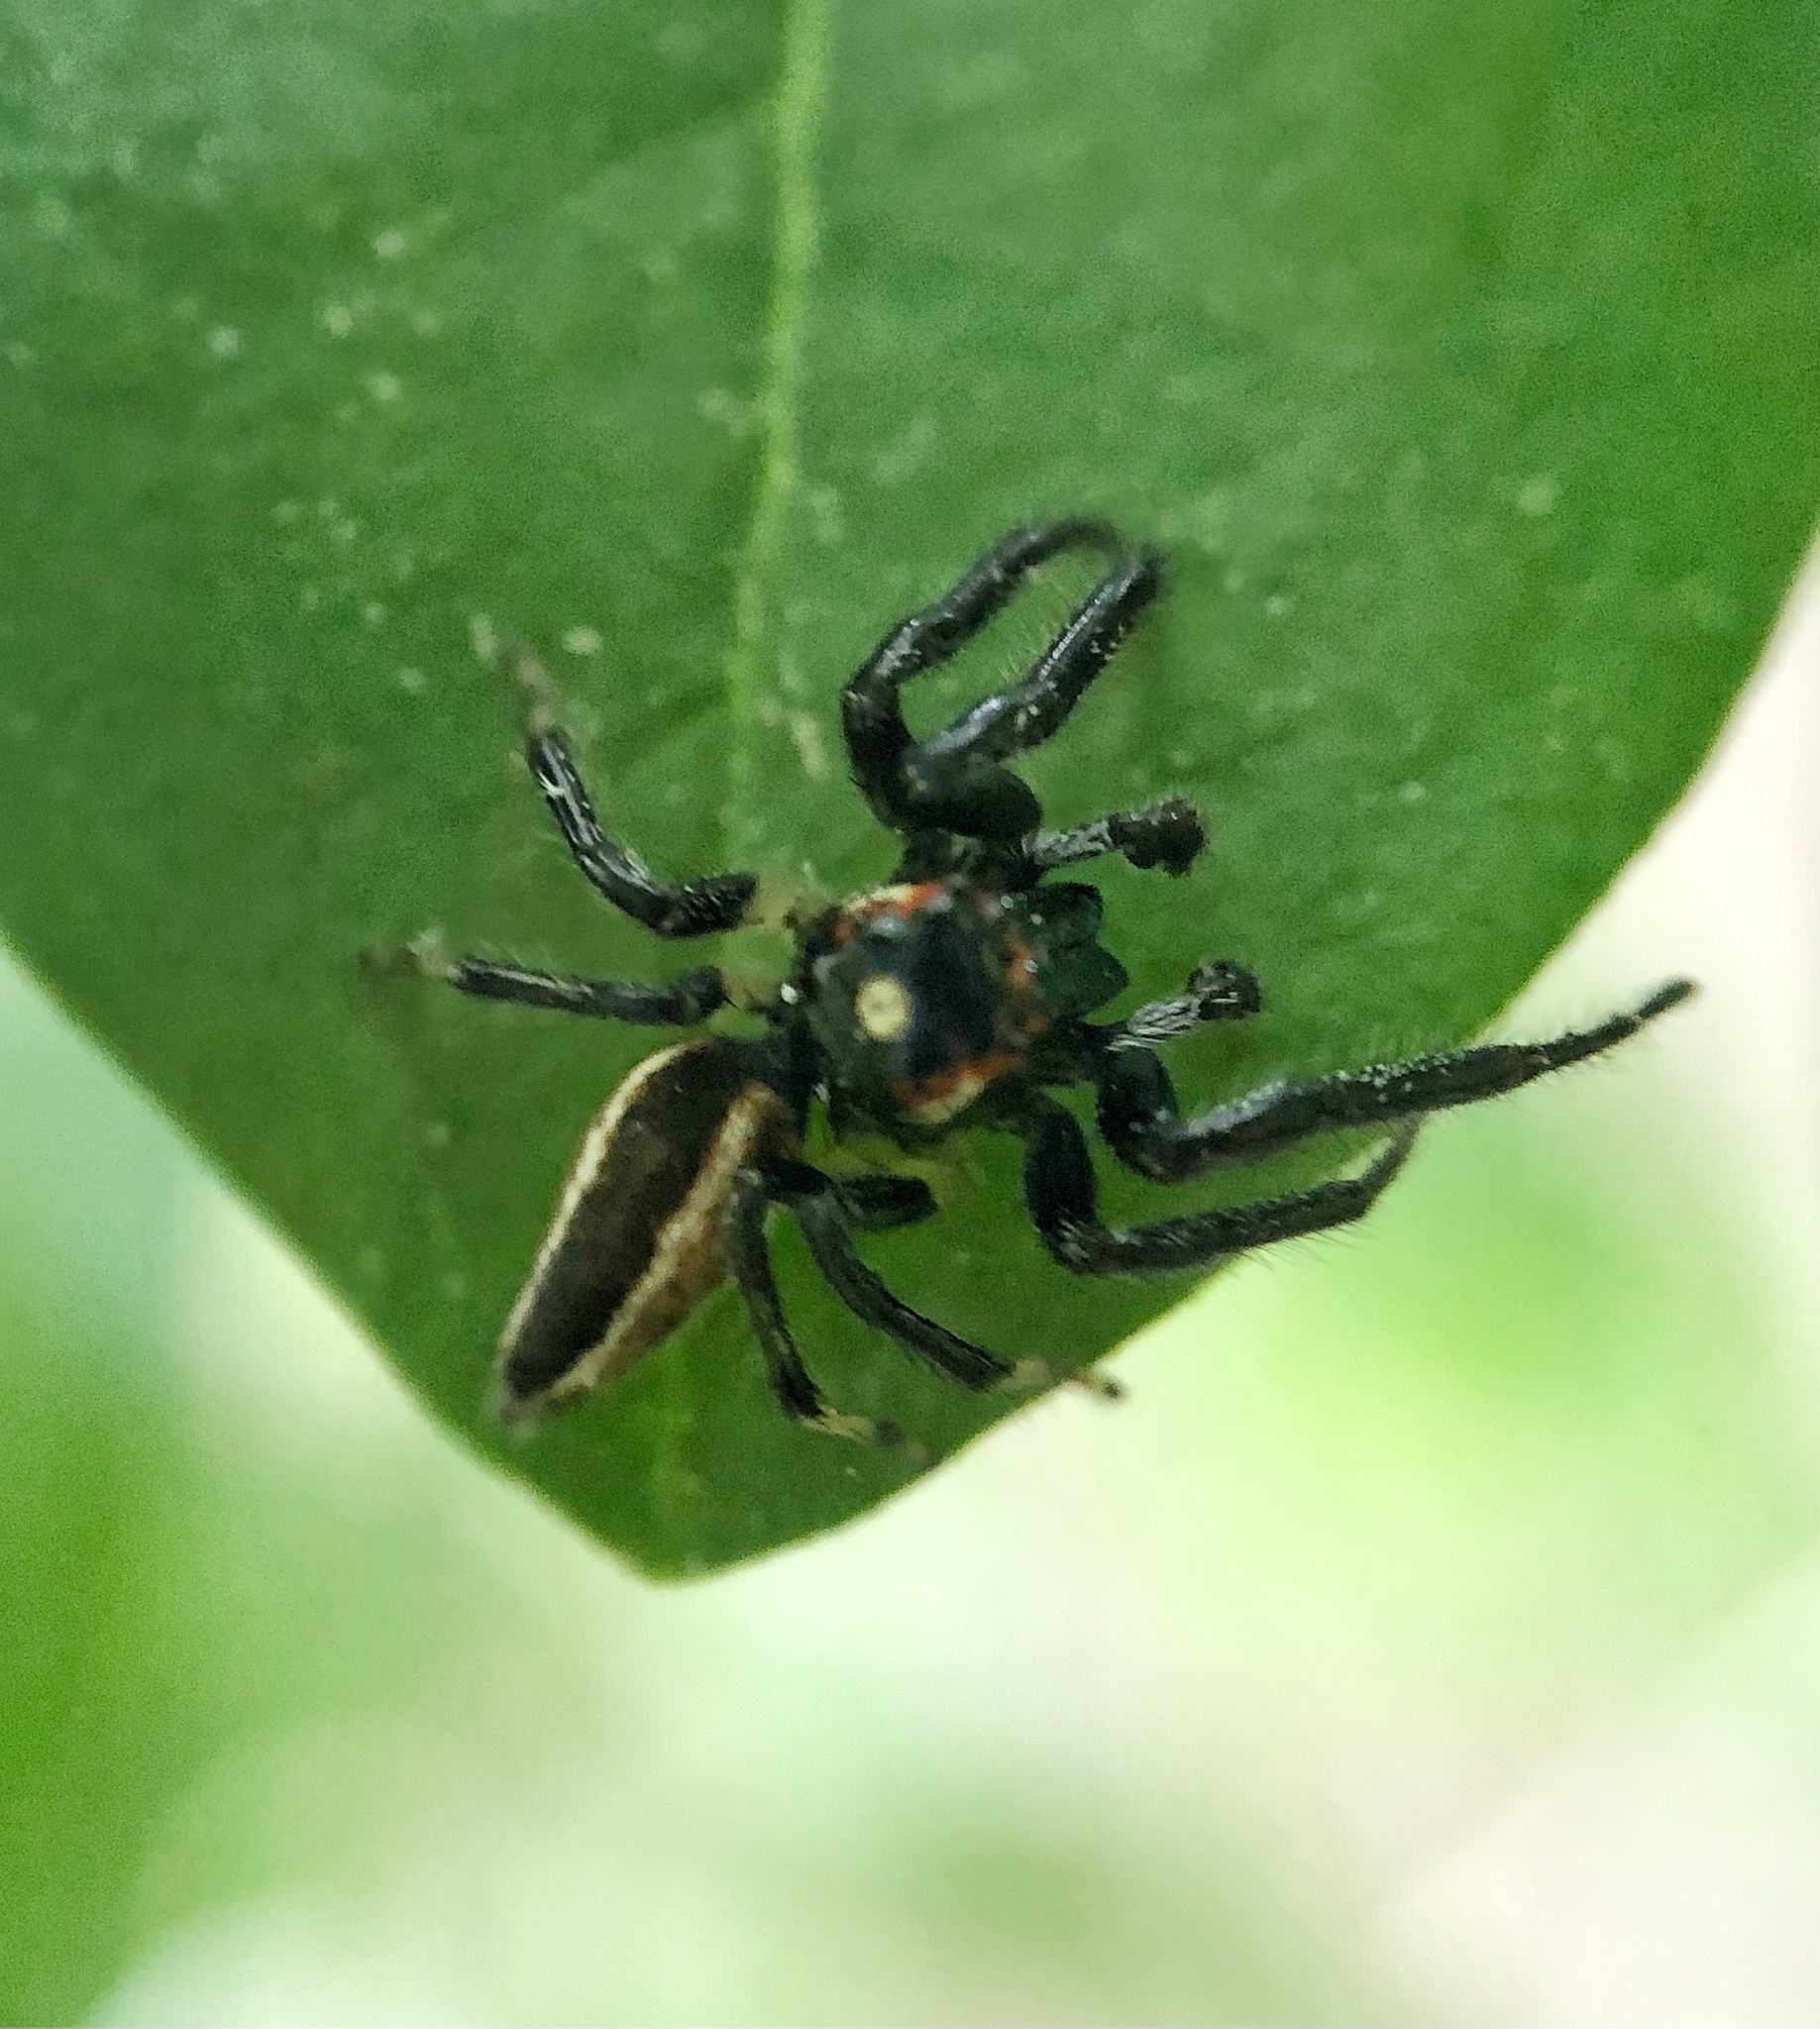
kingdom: Animalia
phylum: Arthropoda
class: Arachnida
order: Araneae
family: Salticidae
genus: Colonus
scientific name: Colonus sylvanus
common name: Jumping spiders
